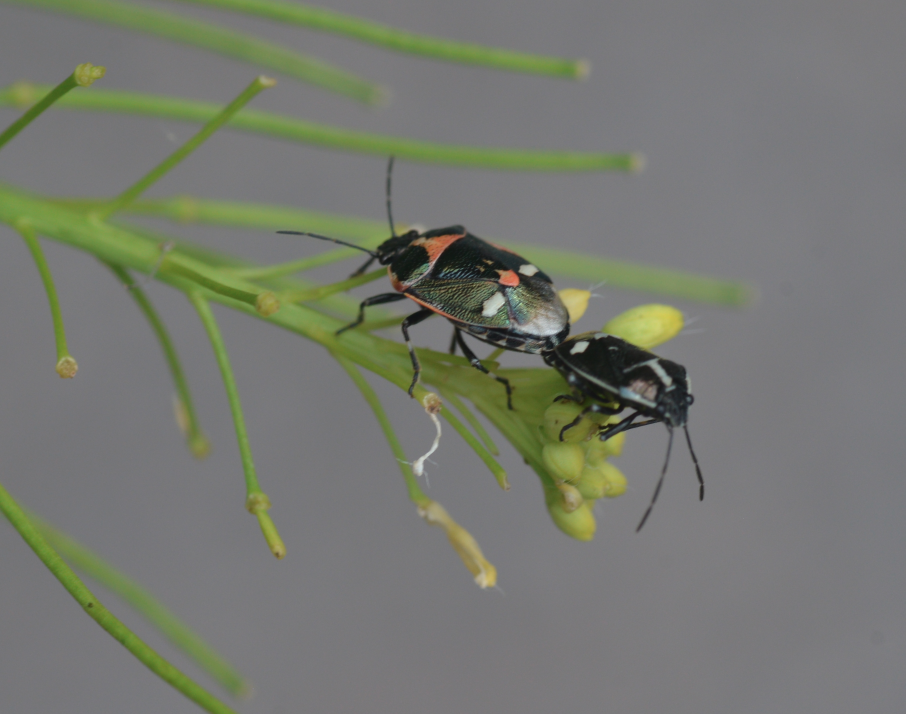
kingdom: Animalia
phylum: Arthropoda
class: Insecta
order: Hemiptera
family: Pentatomidae
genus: Eurydema
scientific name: Eurydema oleracea
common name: Cabbage bug
